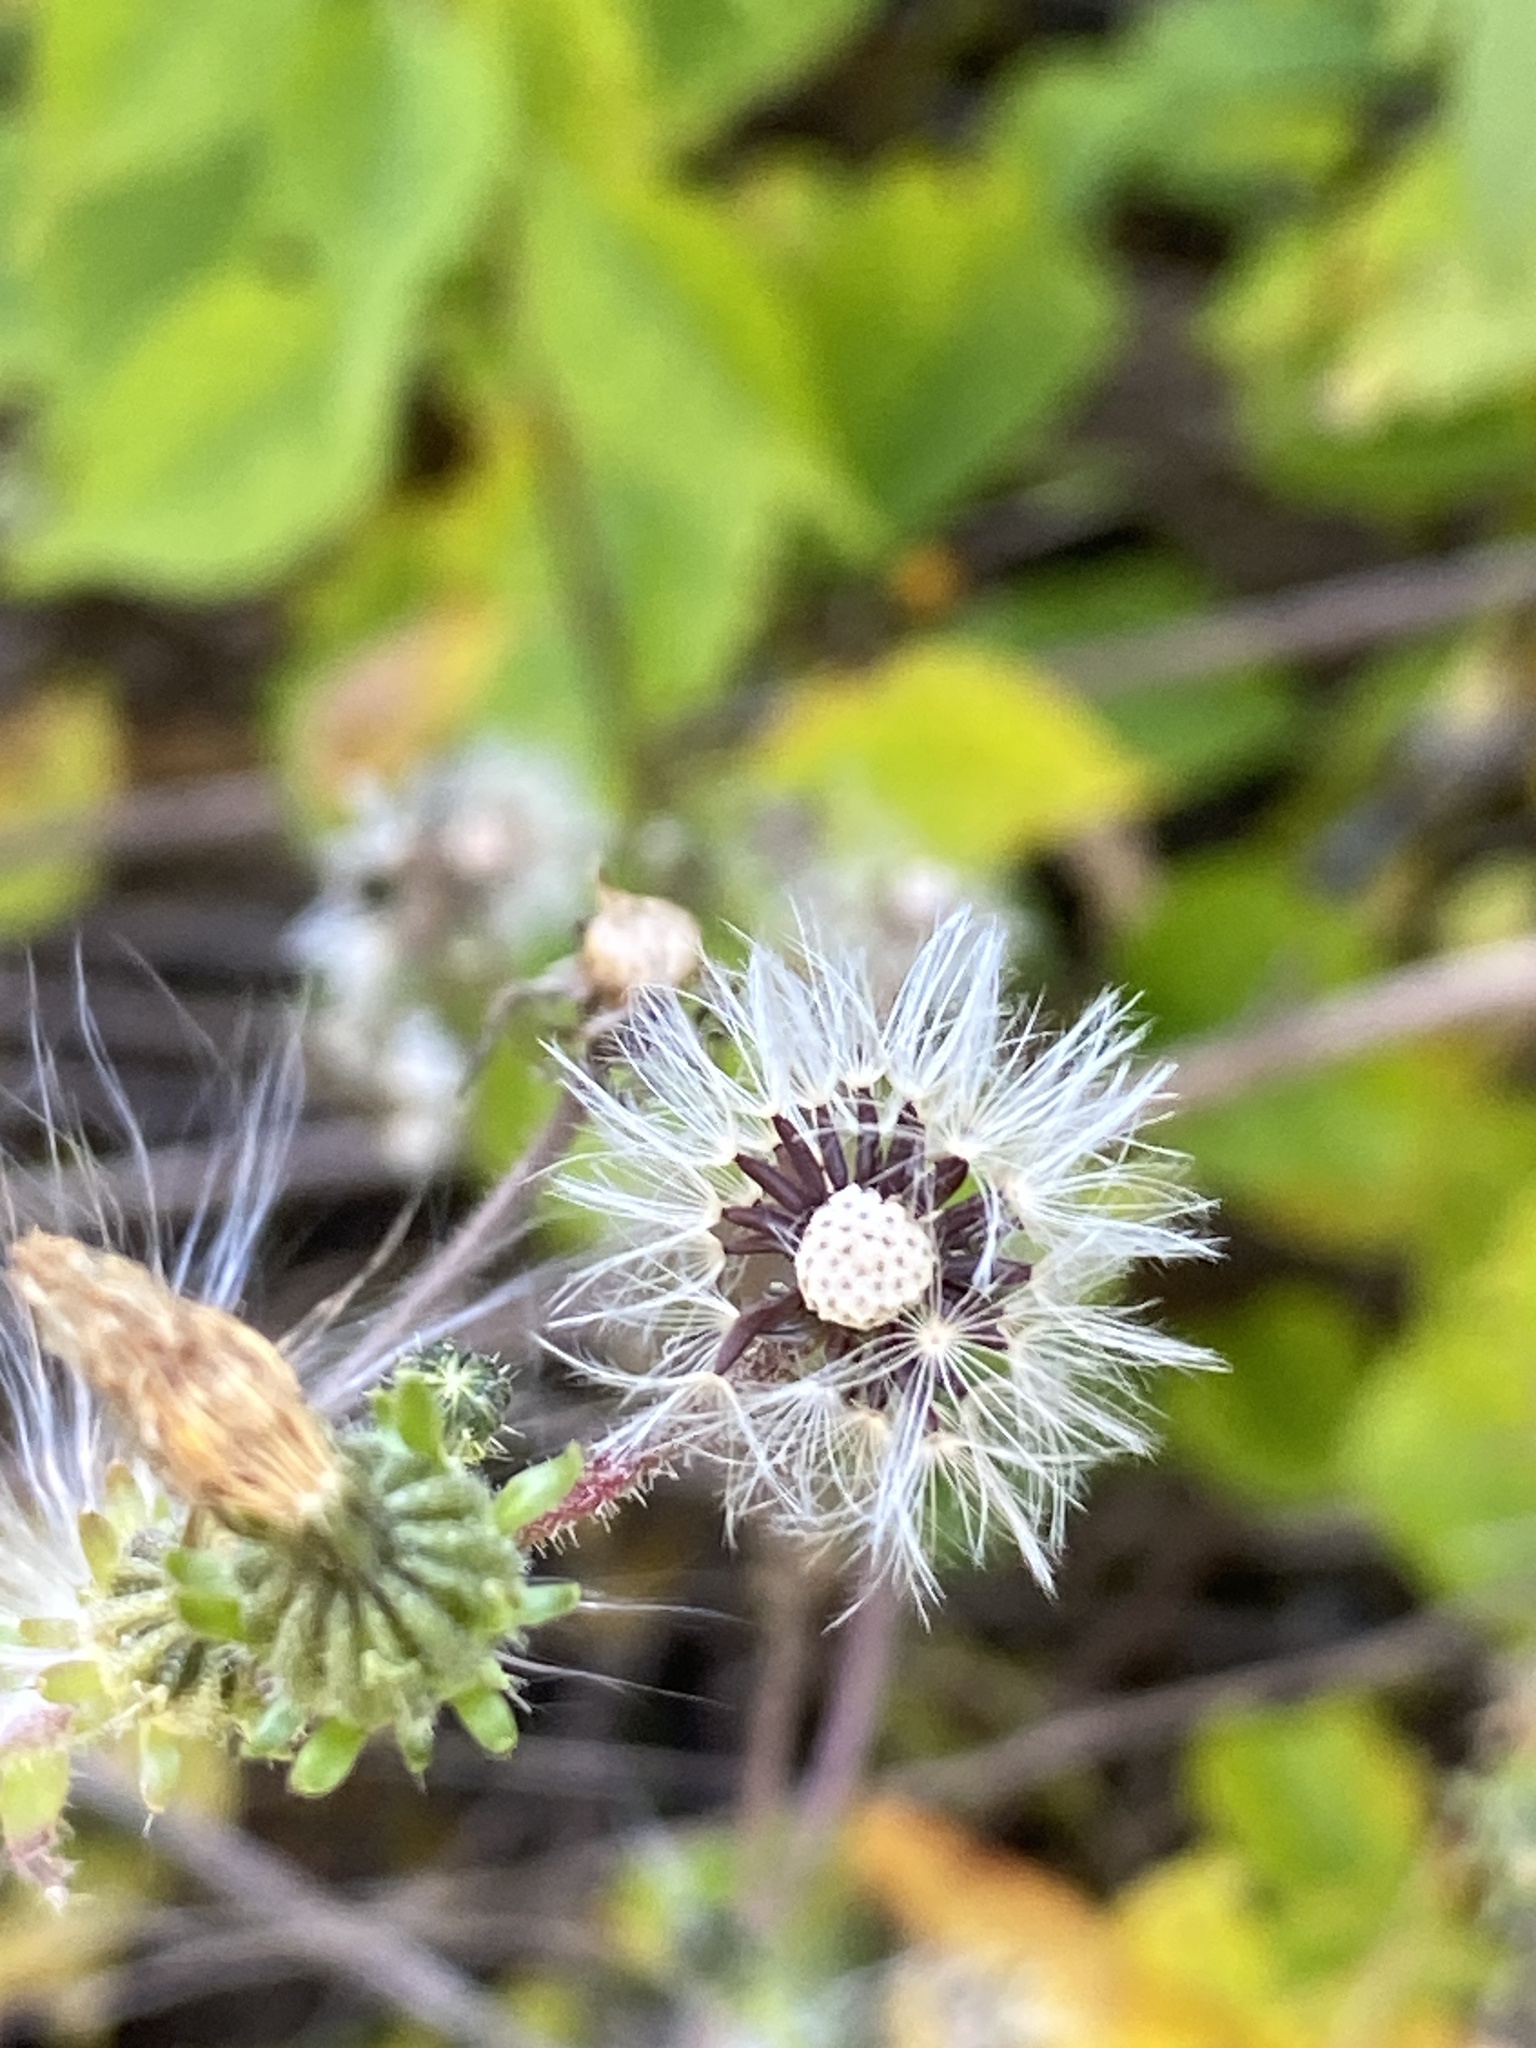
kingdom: Plantae
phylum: Tracheophyta
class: Magnoliopsida
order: Asterales
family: Asteraceae
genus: Picris
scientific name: Picris hieracioides
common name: Hawkweed oxtongue
